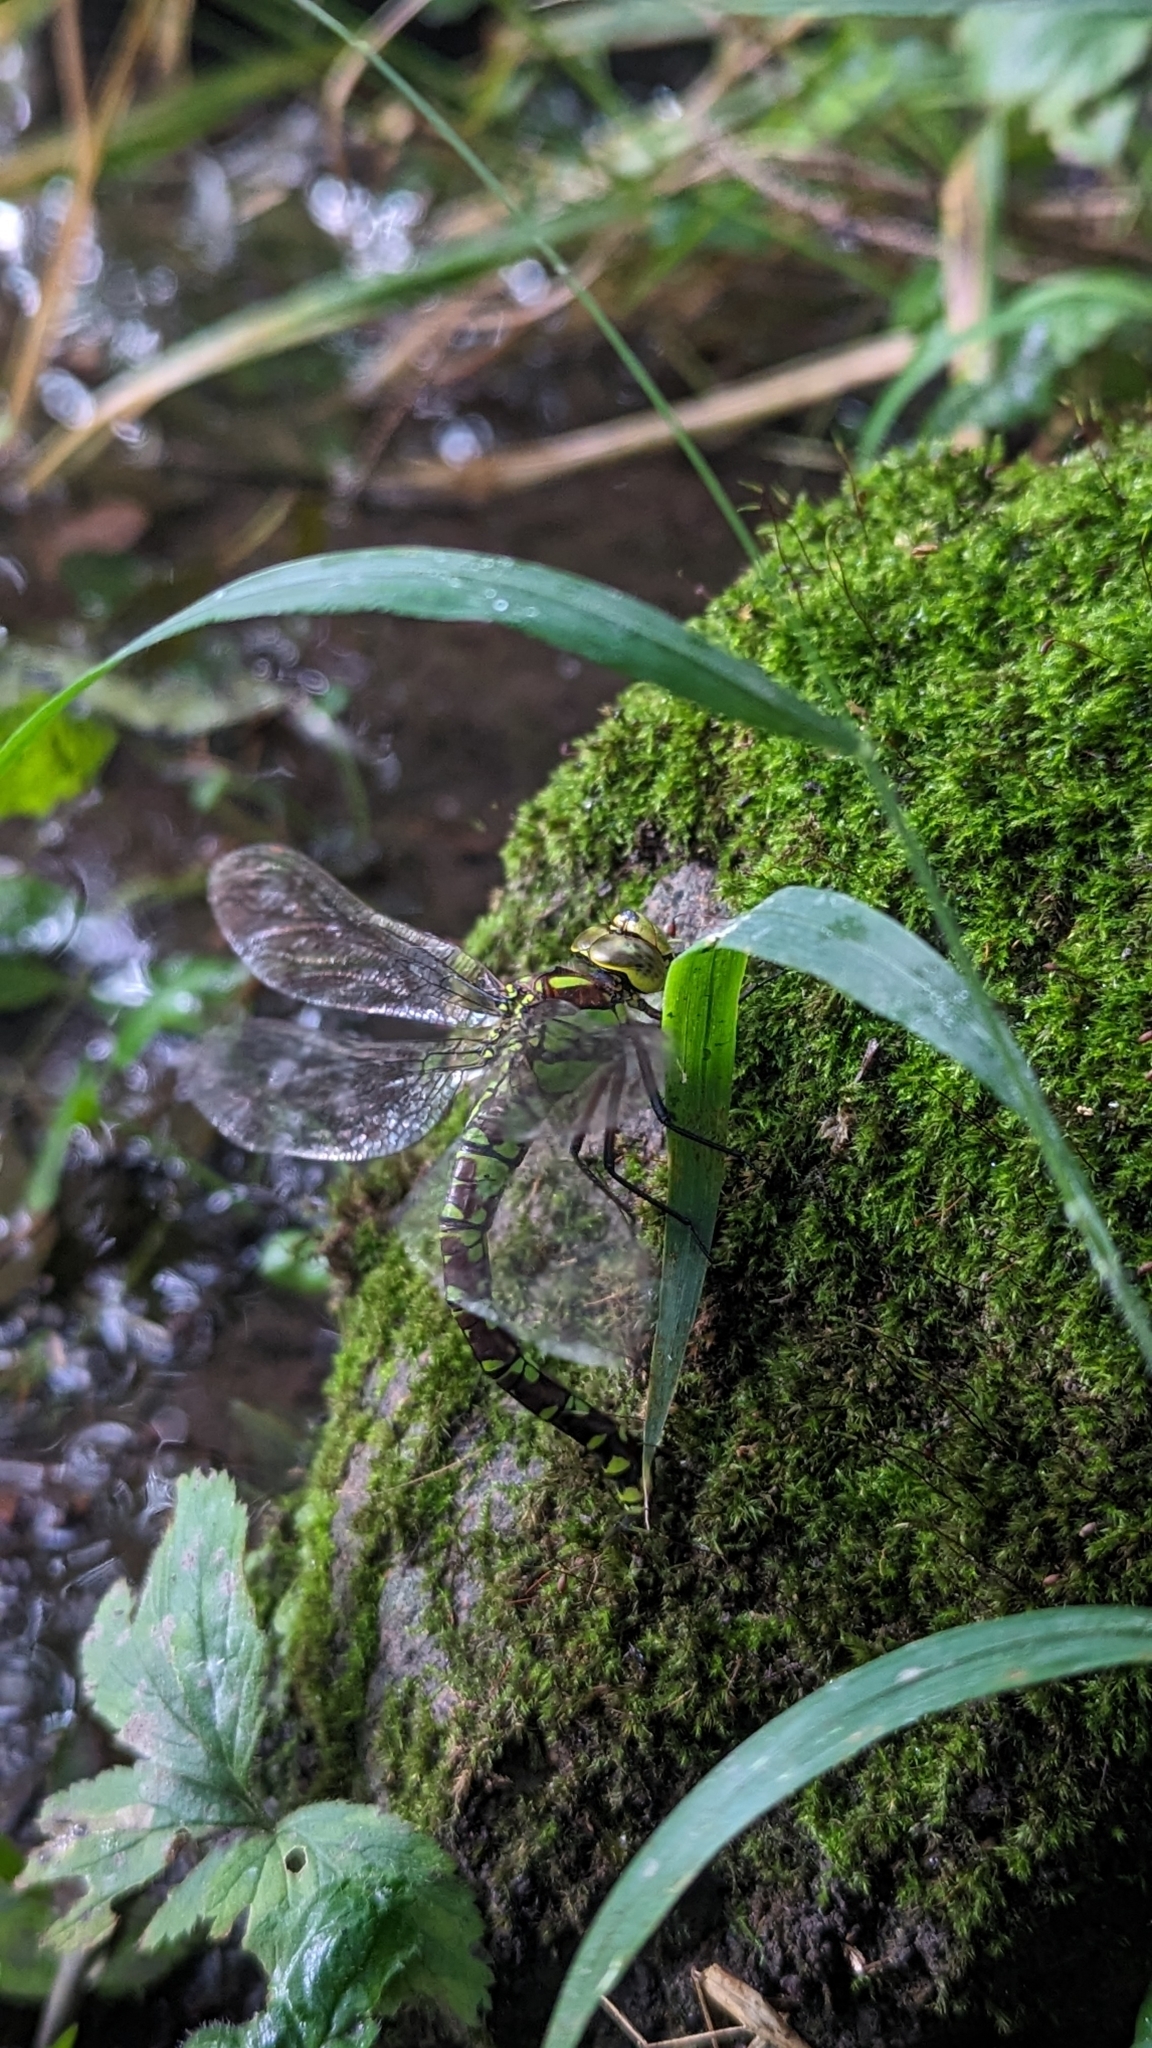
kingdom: Animalia
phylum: Arthropoda
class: Insecta
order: Odonata
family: Aeshnidae
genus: Aeshna
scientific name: Aeshna cyanea
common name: Southern hawker
